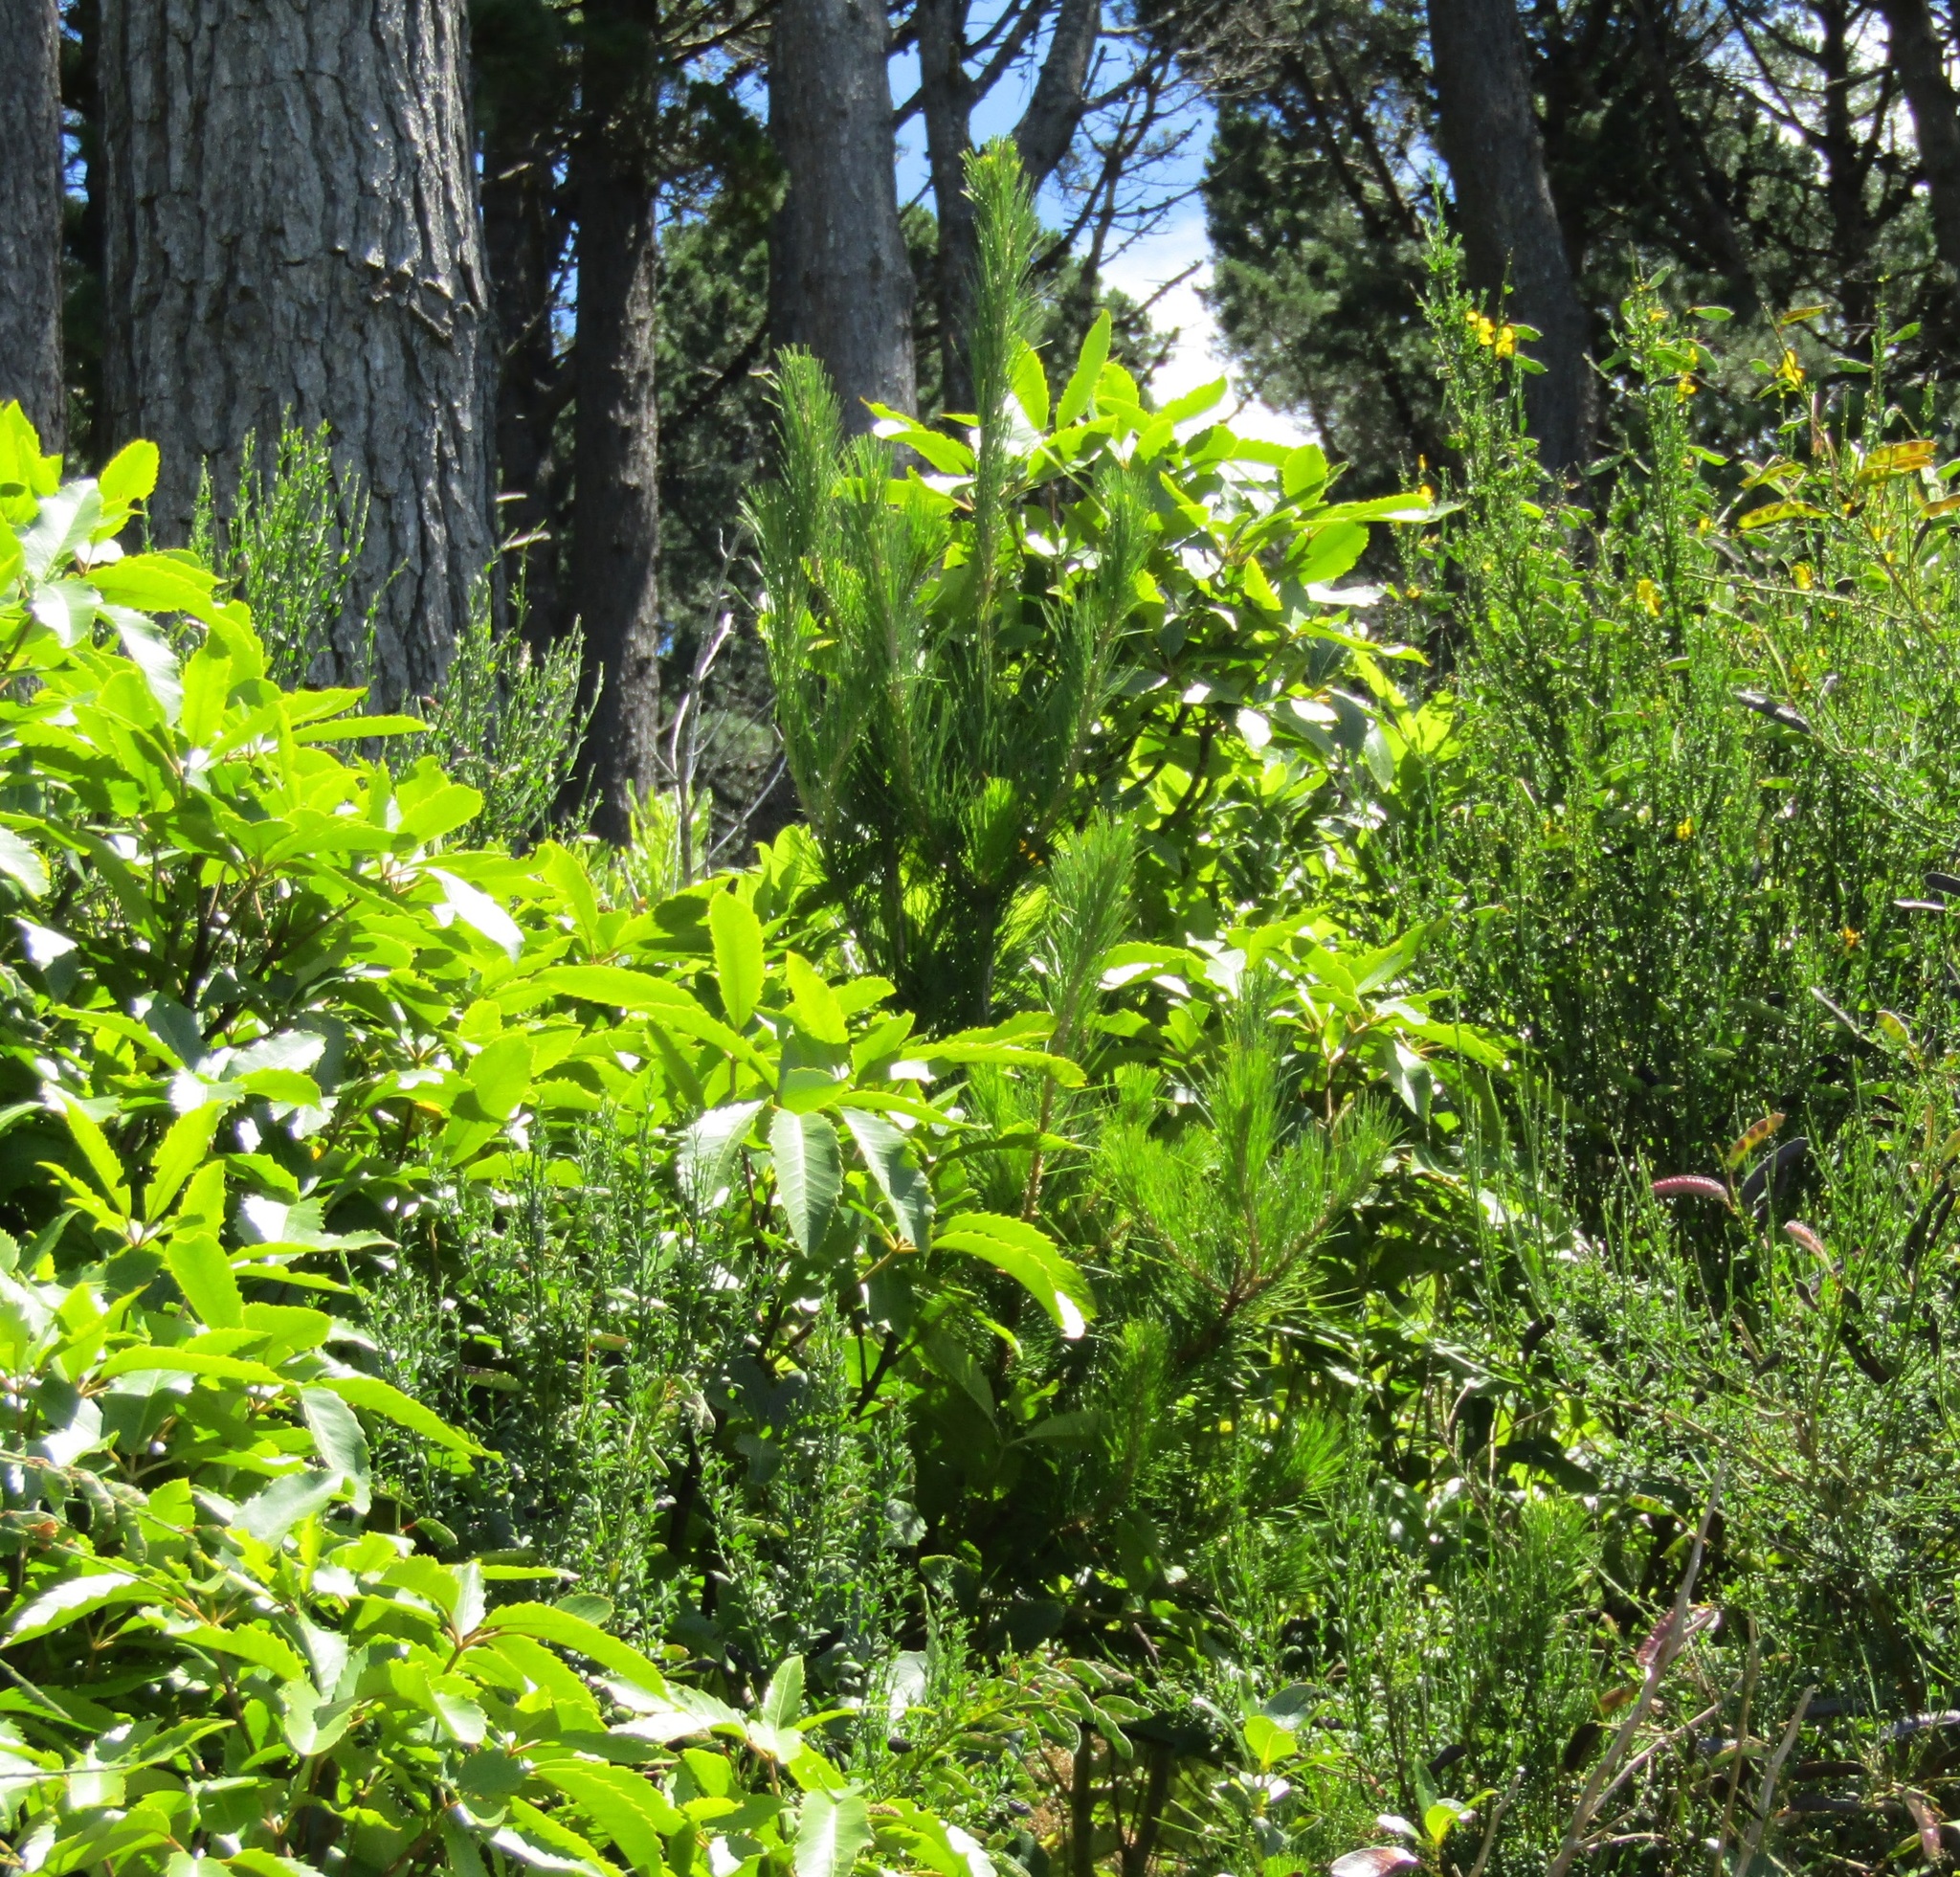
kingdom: Plantae
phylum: Tracheophyta
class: Pinopsida
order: Pinales
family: Pinaceae
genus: Pinus
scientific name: Pinus radiata
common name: Monterey pine
